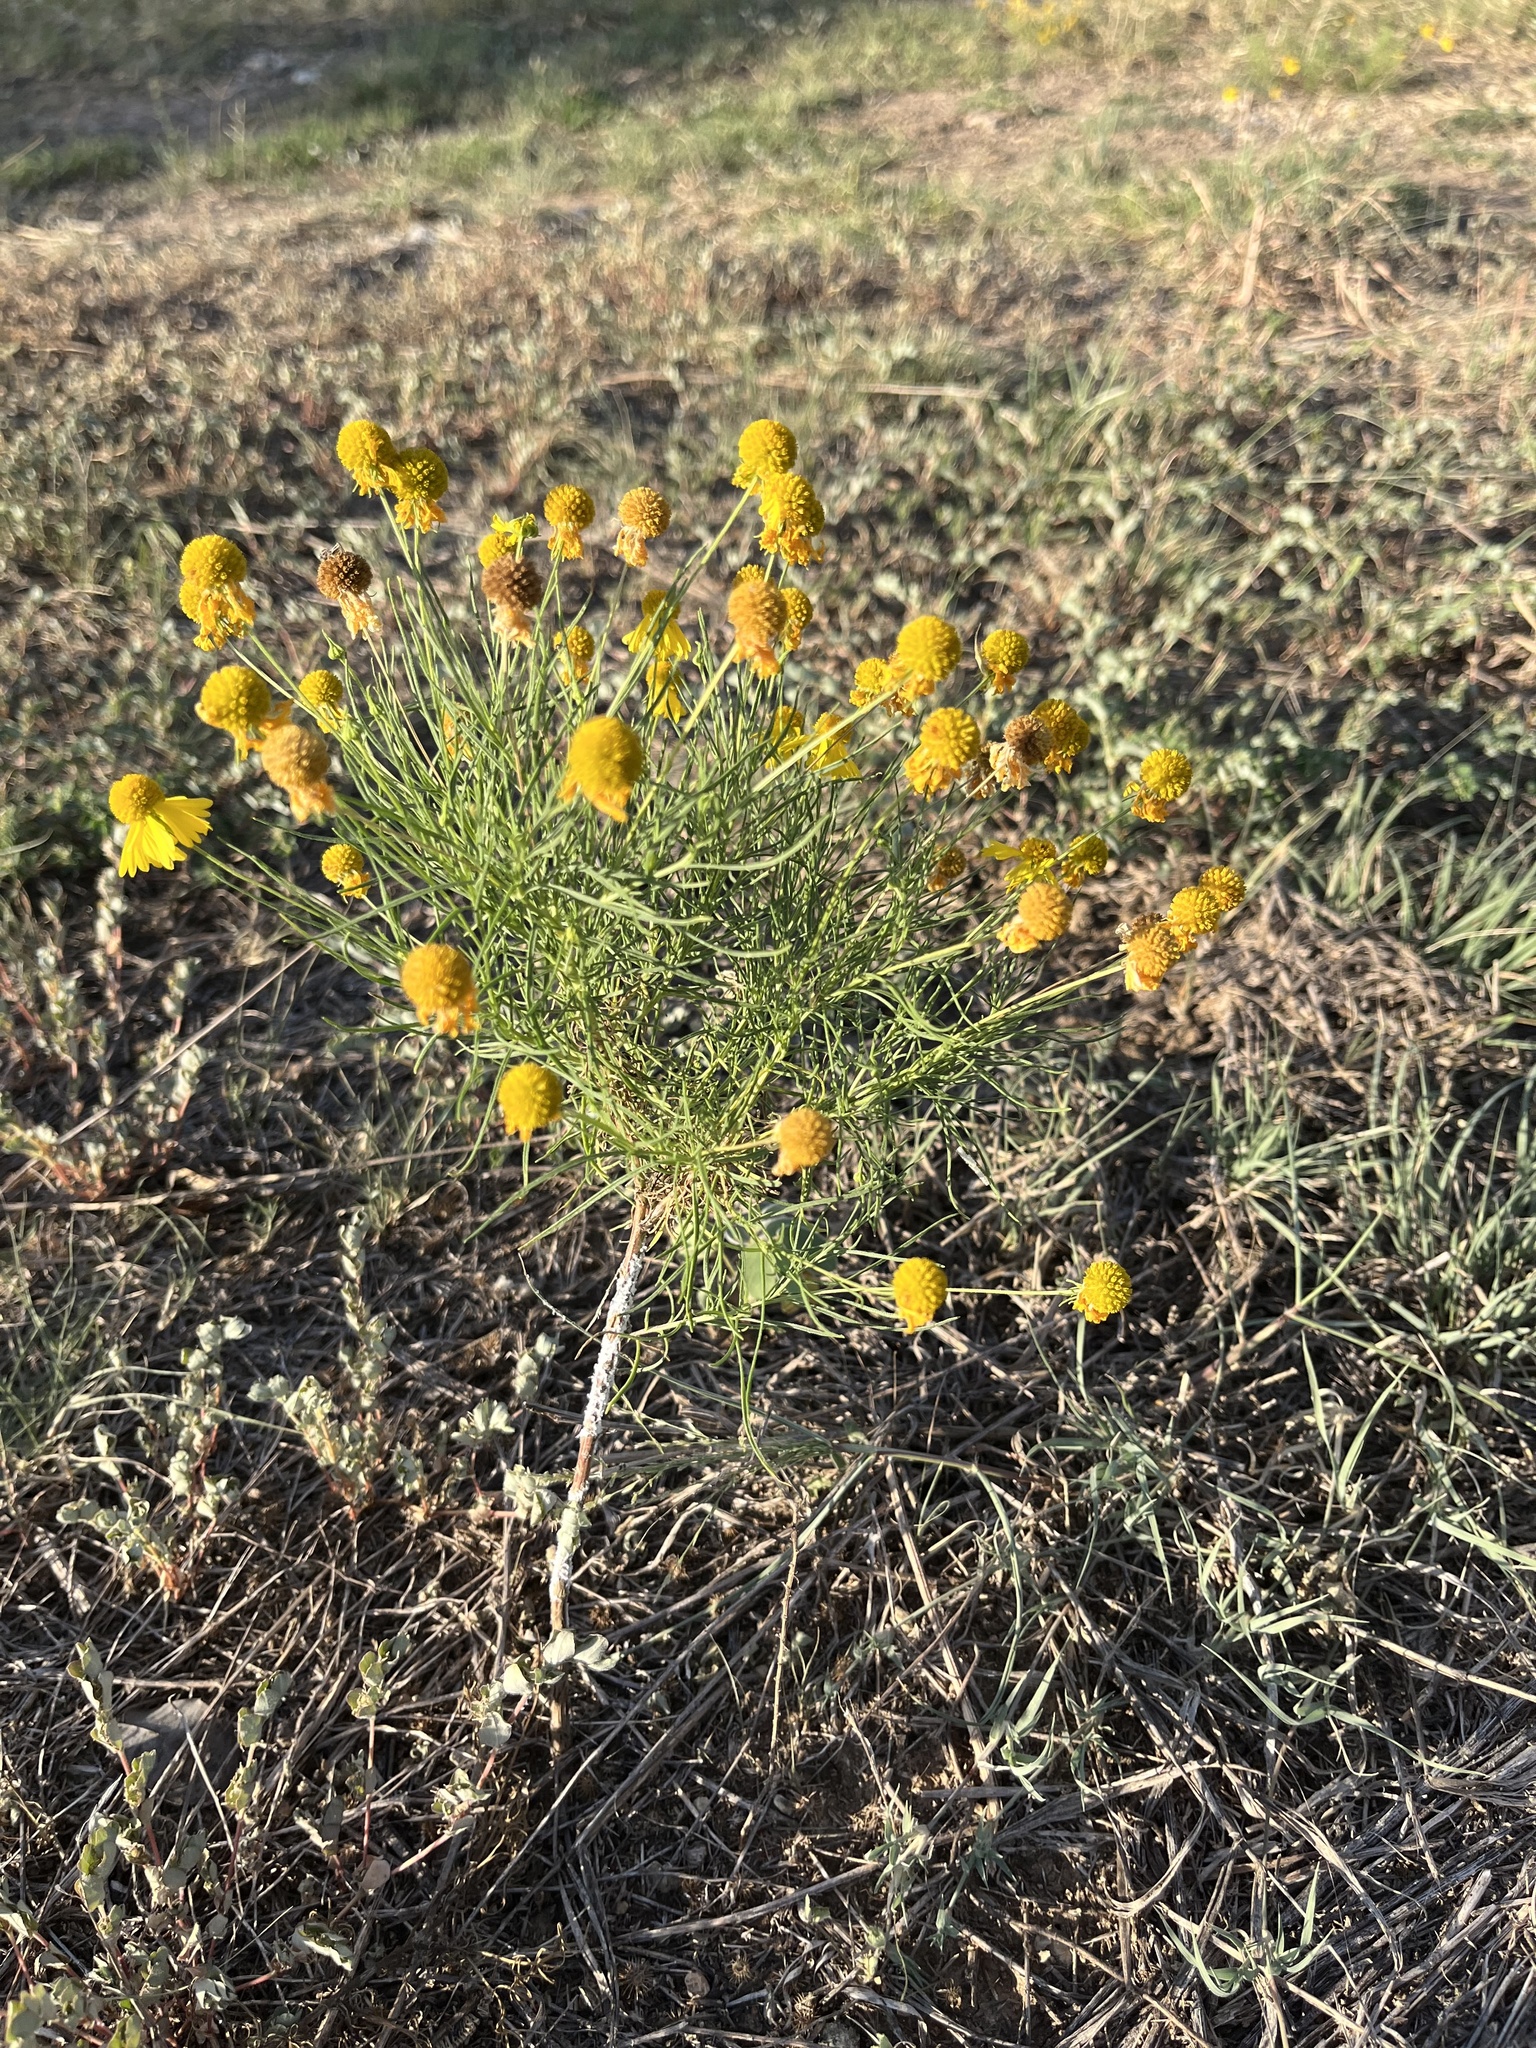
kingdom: Plantae
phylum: Tracheophyta
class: Magnoliopsida
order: Asterales
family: Asteraceae
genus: Helenium
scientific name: Helenium amarum
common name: Bitter sneezeweed
